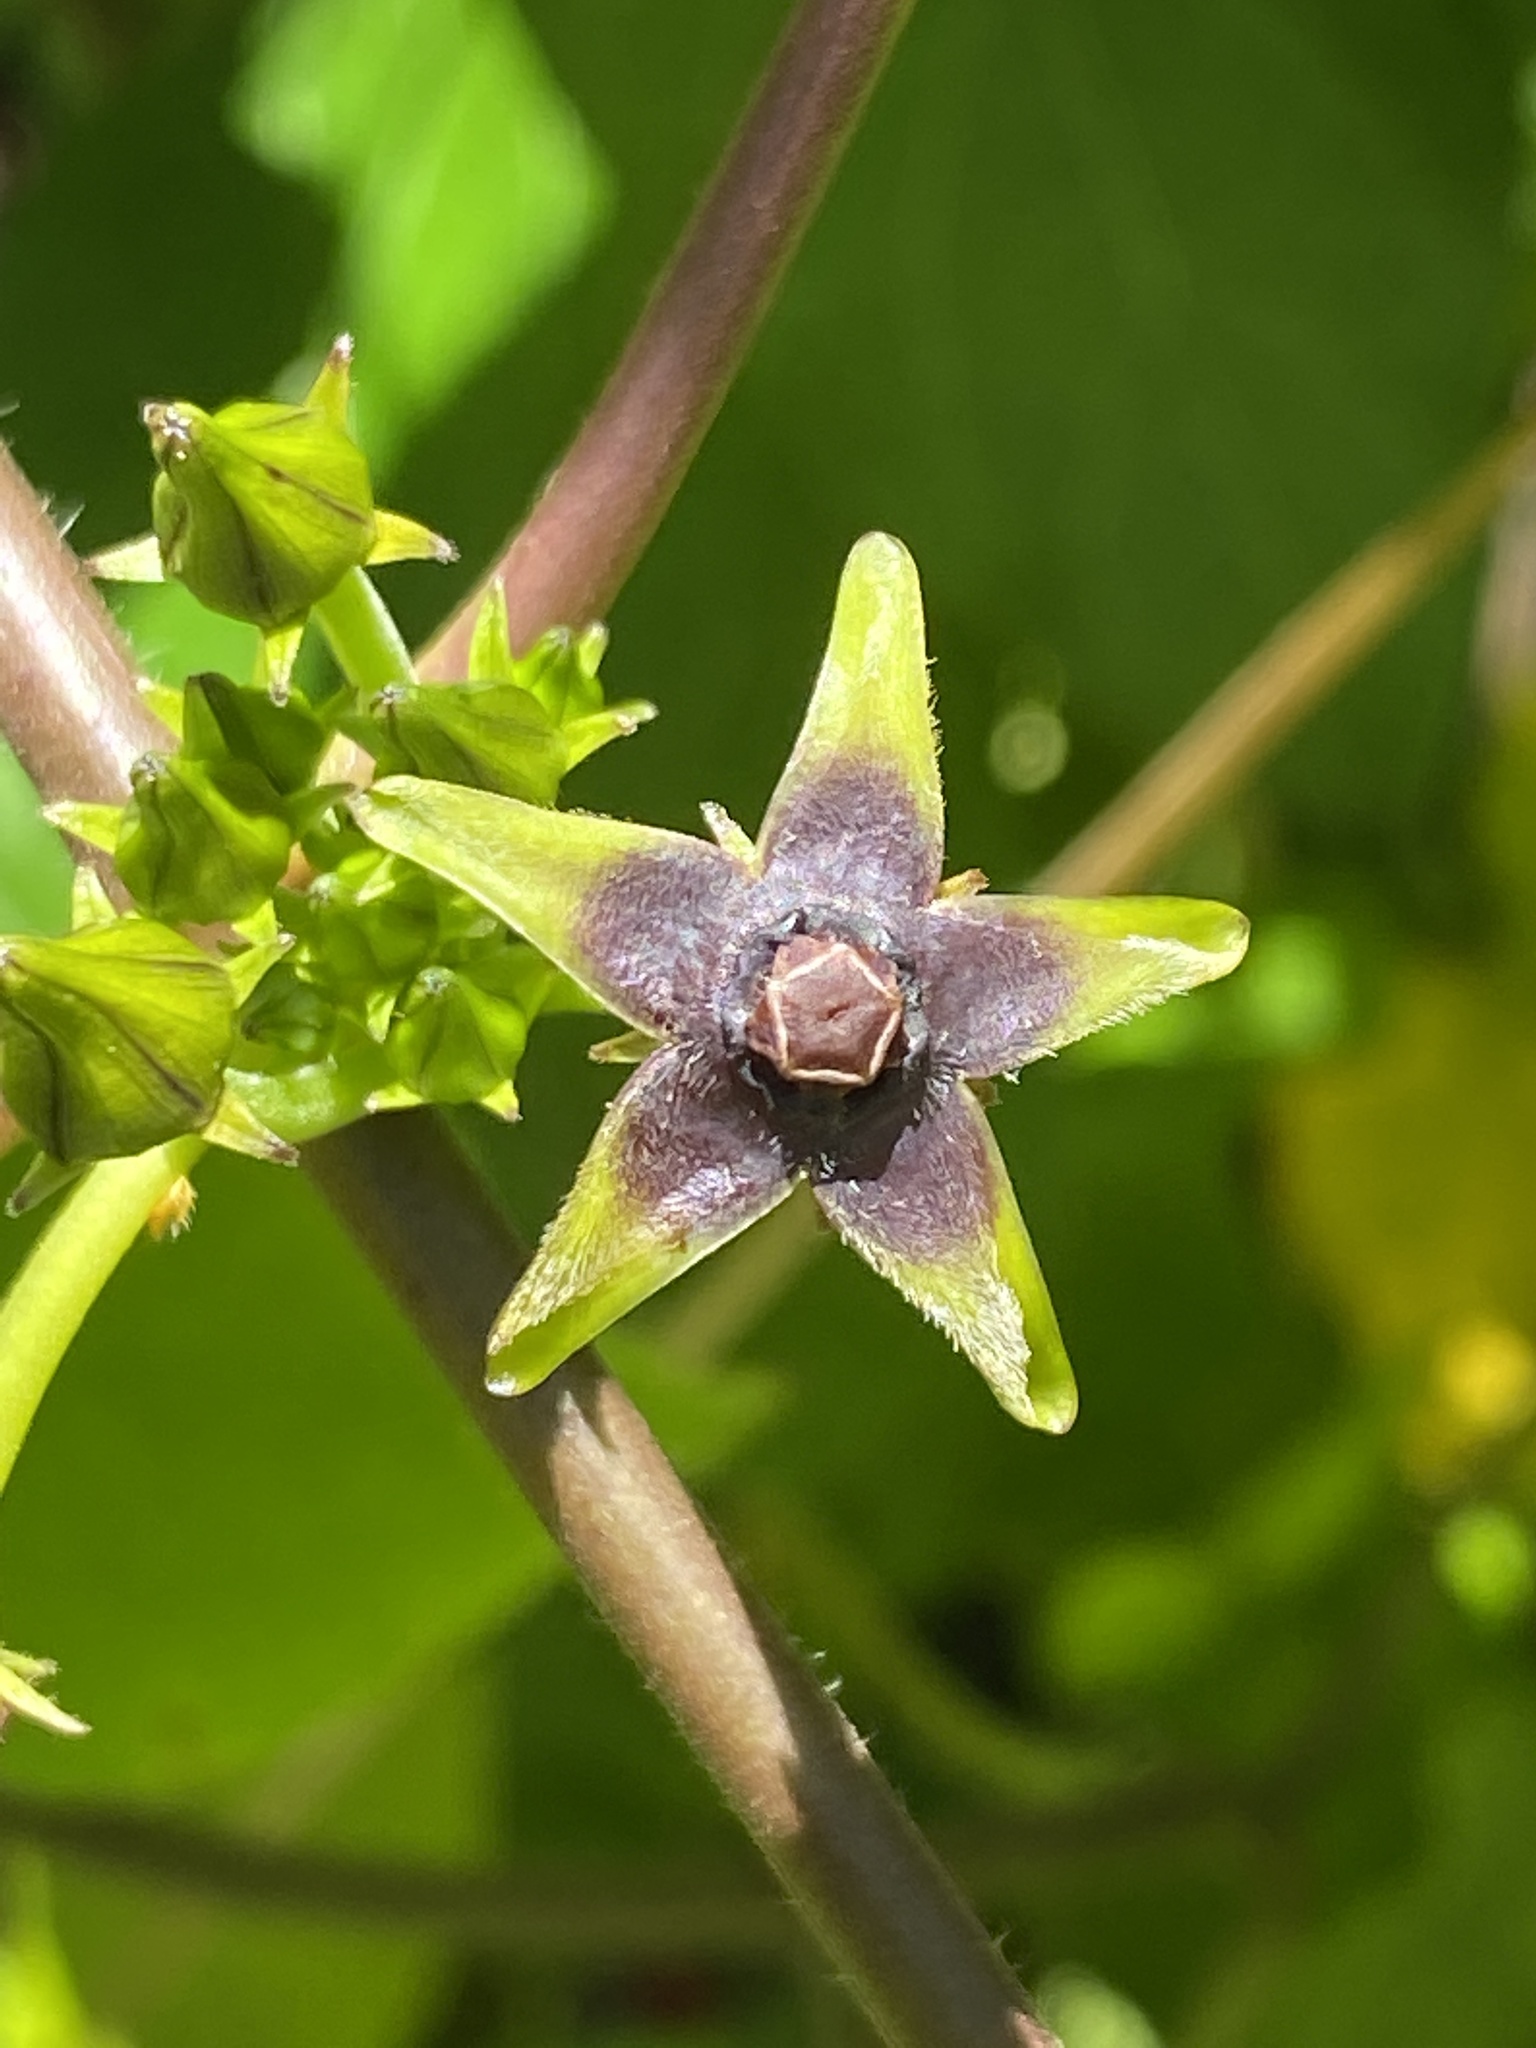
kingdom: Plantae
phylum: Tracheophyta
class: Magnoliopsida
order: Gentianales
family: Apocynaceae
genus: Gonolobus
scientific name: Gonolobus suberosus
